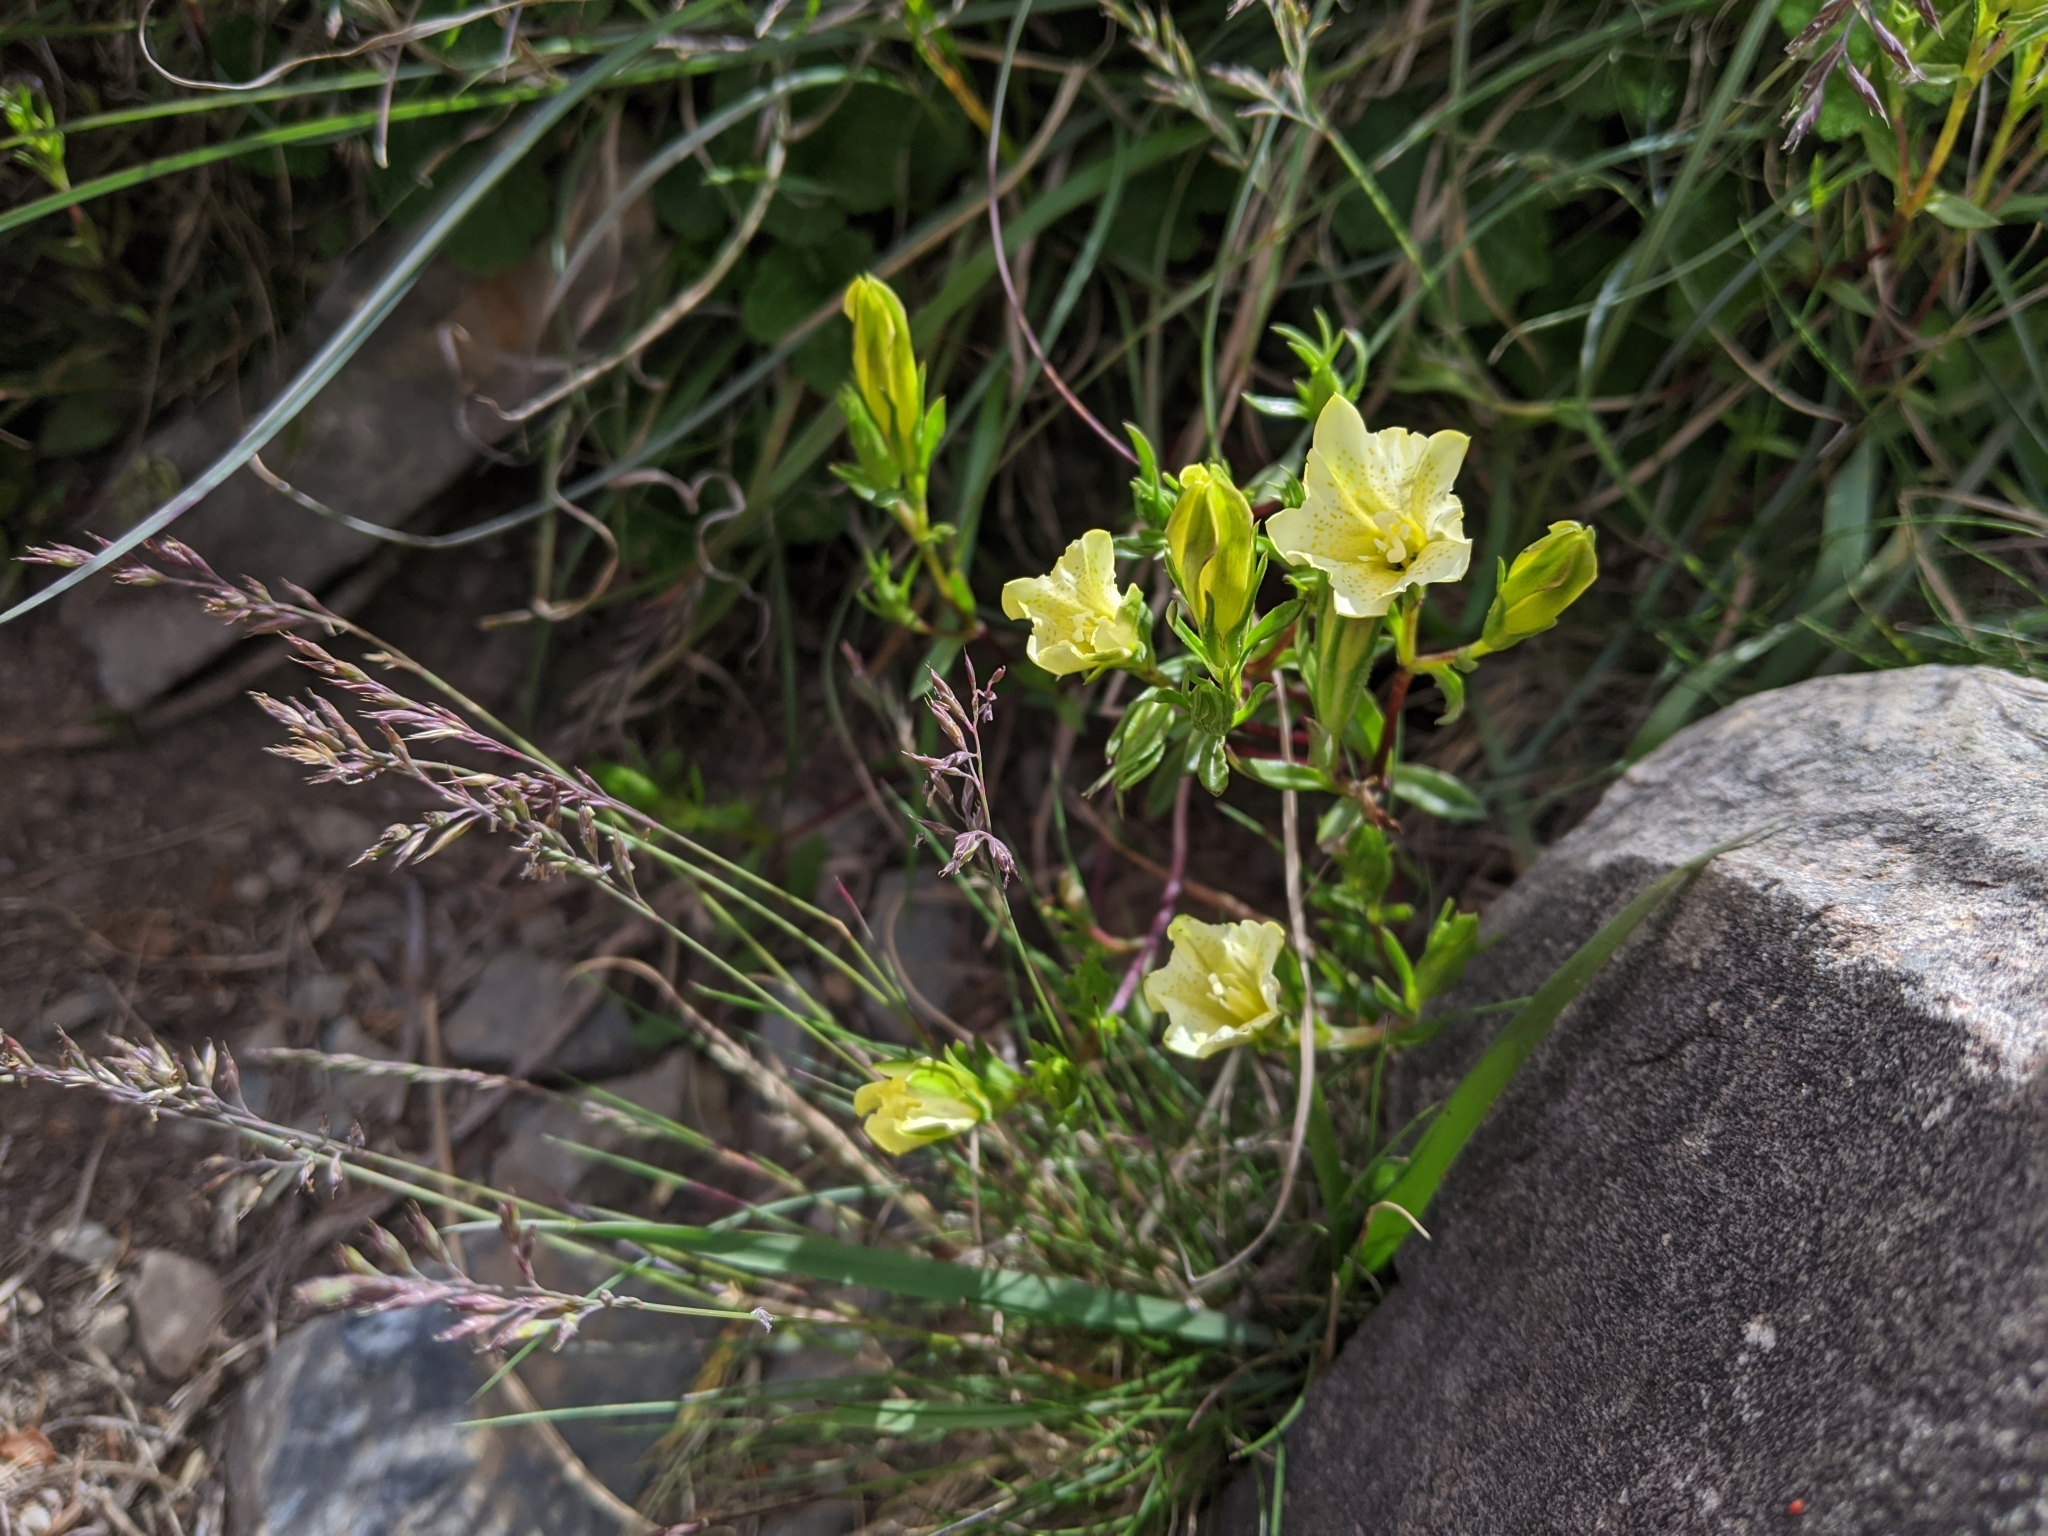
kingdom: Plantae
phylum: Tracheophyta
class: Magnoliopsida
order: Gentianales
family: Gentianaceae
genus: Gentiana
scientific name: Gentiana scabrida
